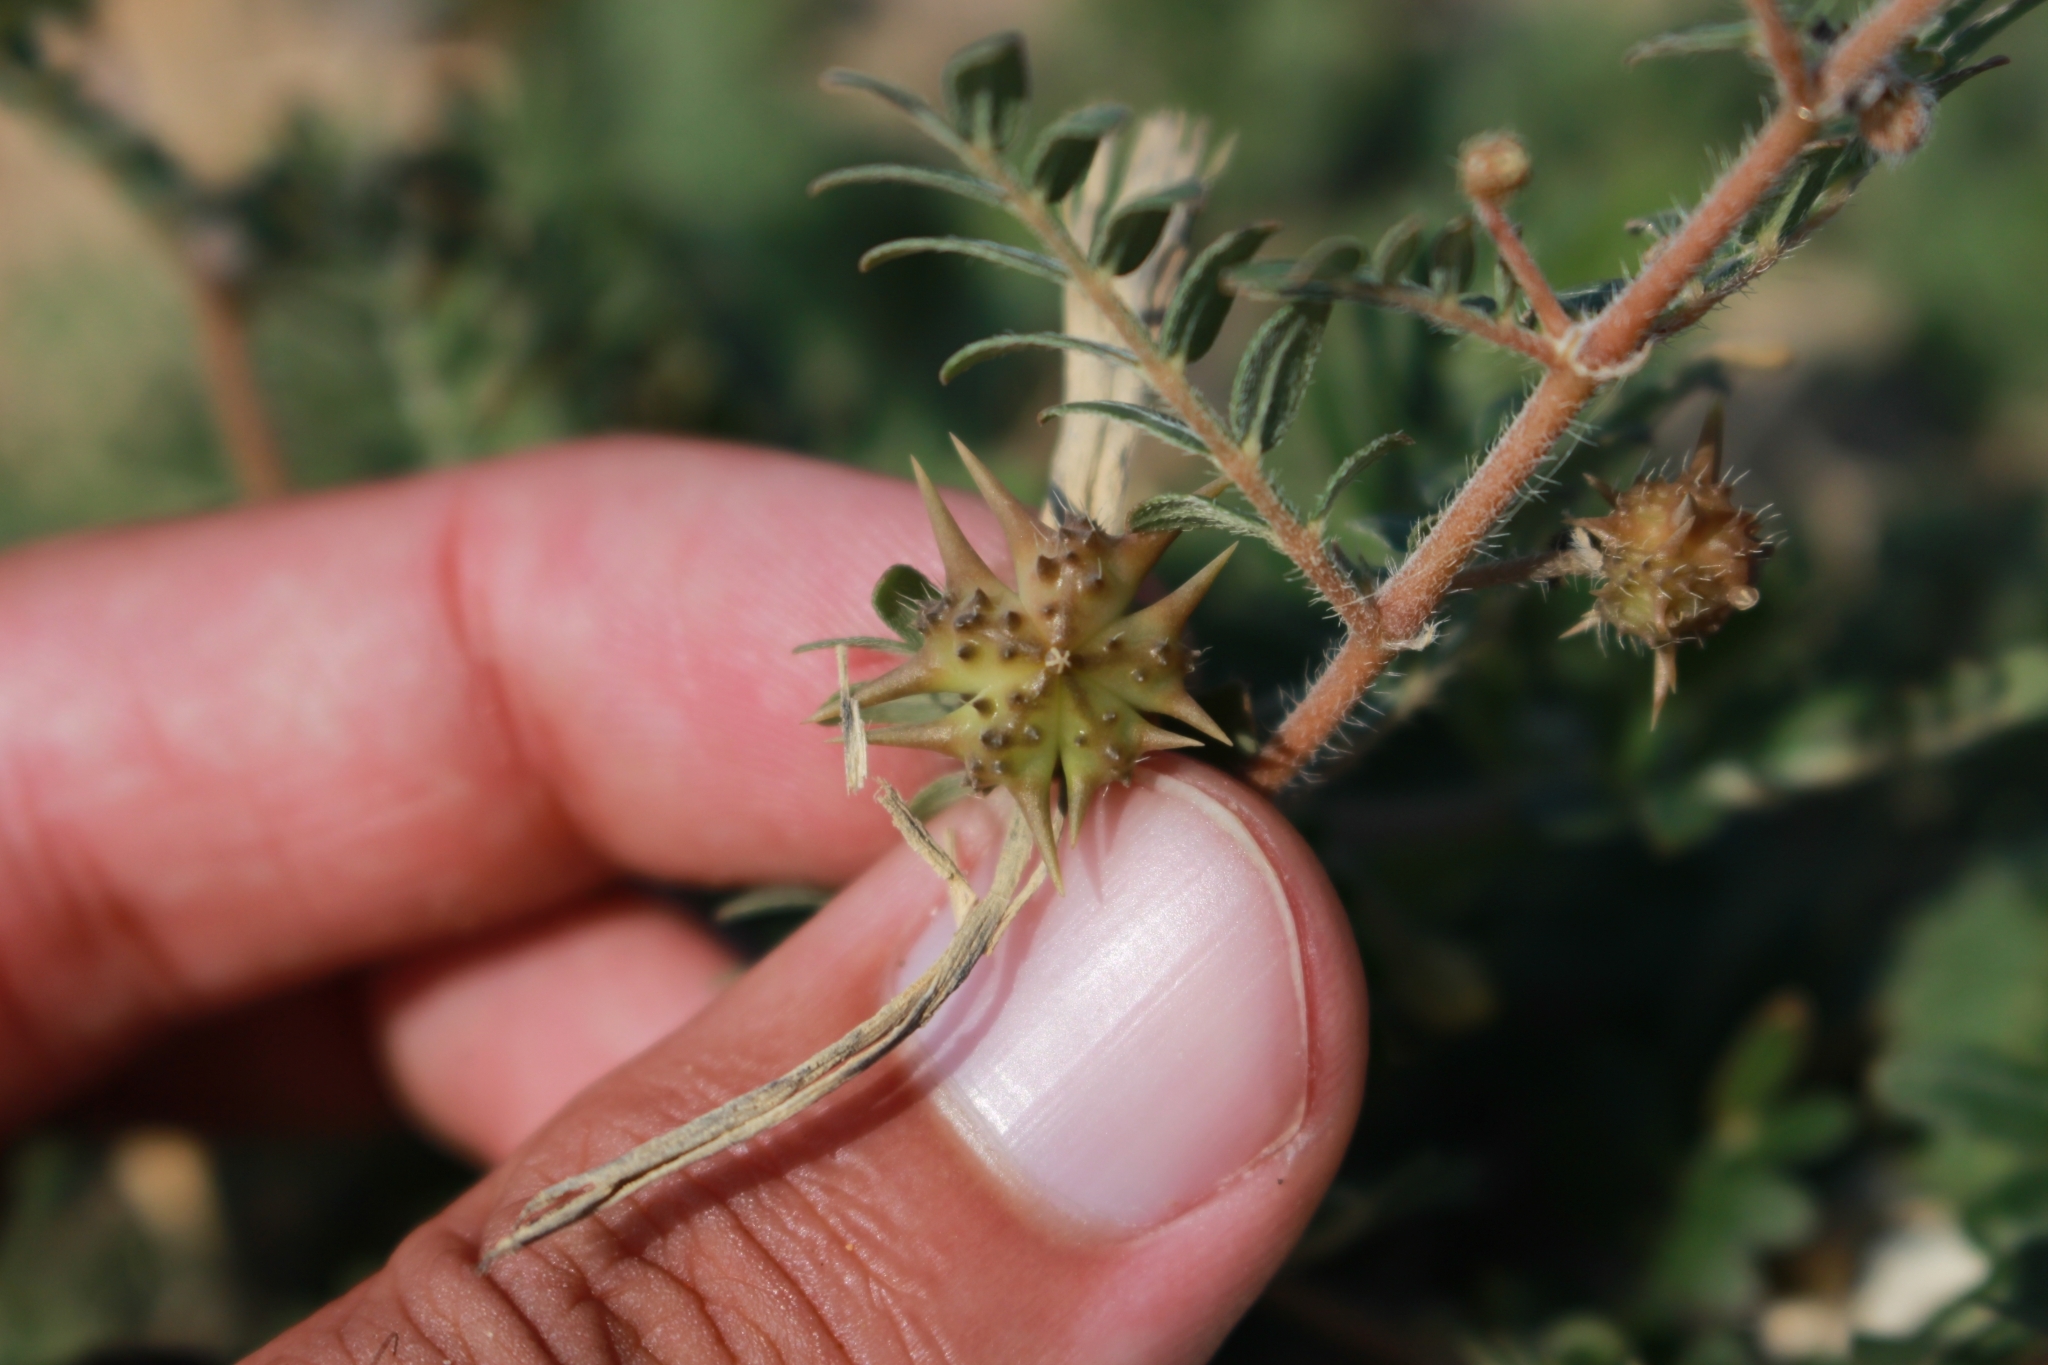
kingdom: Plantae
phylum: Tracheophyta
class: Magnoliopsida
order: Zygophyllales
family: Zygophyllaceae
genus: Tribulus
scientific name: Tribulus terrestris
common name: Puncturevine
